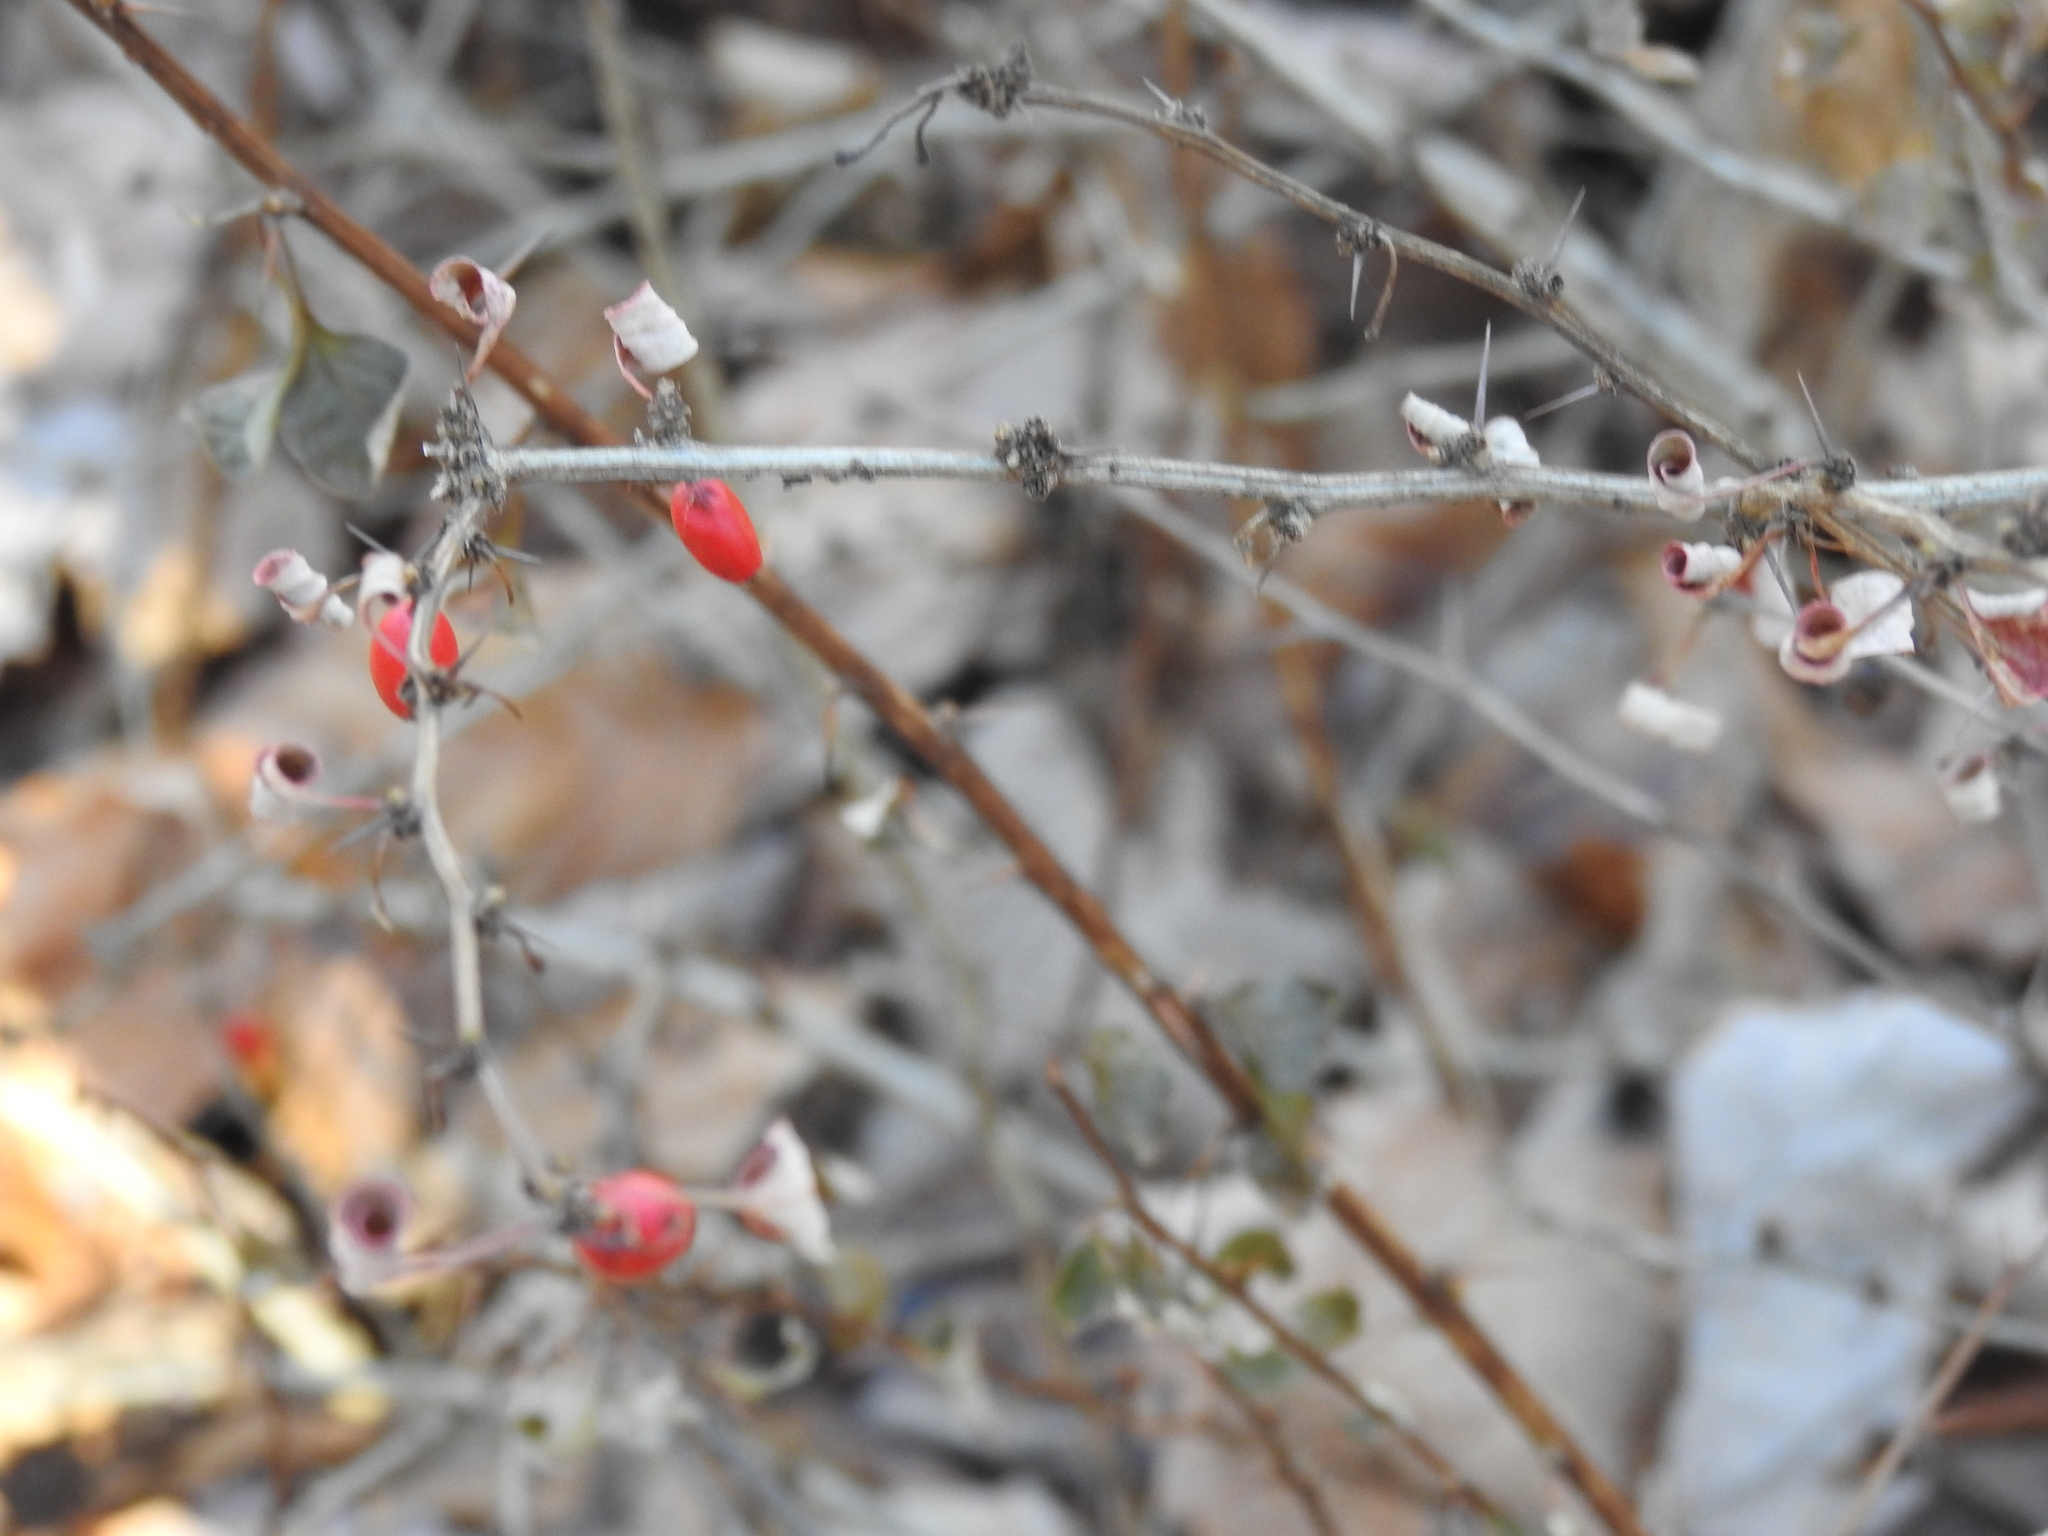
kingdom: Plantae
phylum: Tracheophyta
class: Magnoliopsida
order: Ranunculales
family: Berberidaceae
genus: Berberis
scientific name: Berberis thunbergii
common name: Japanese barberry
